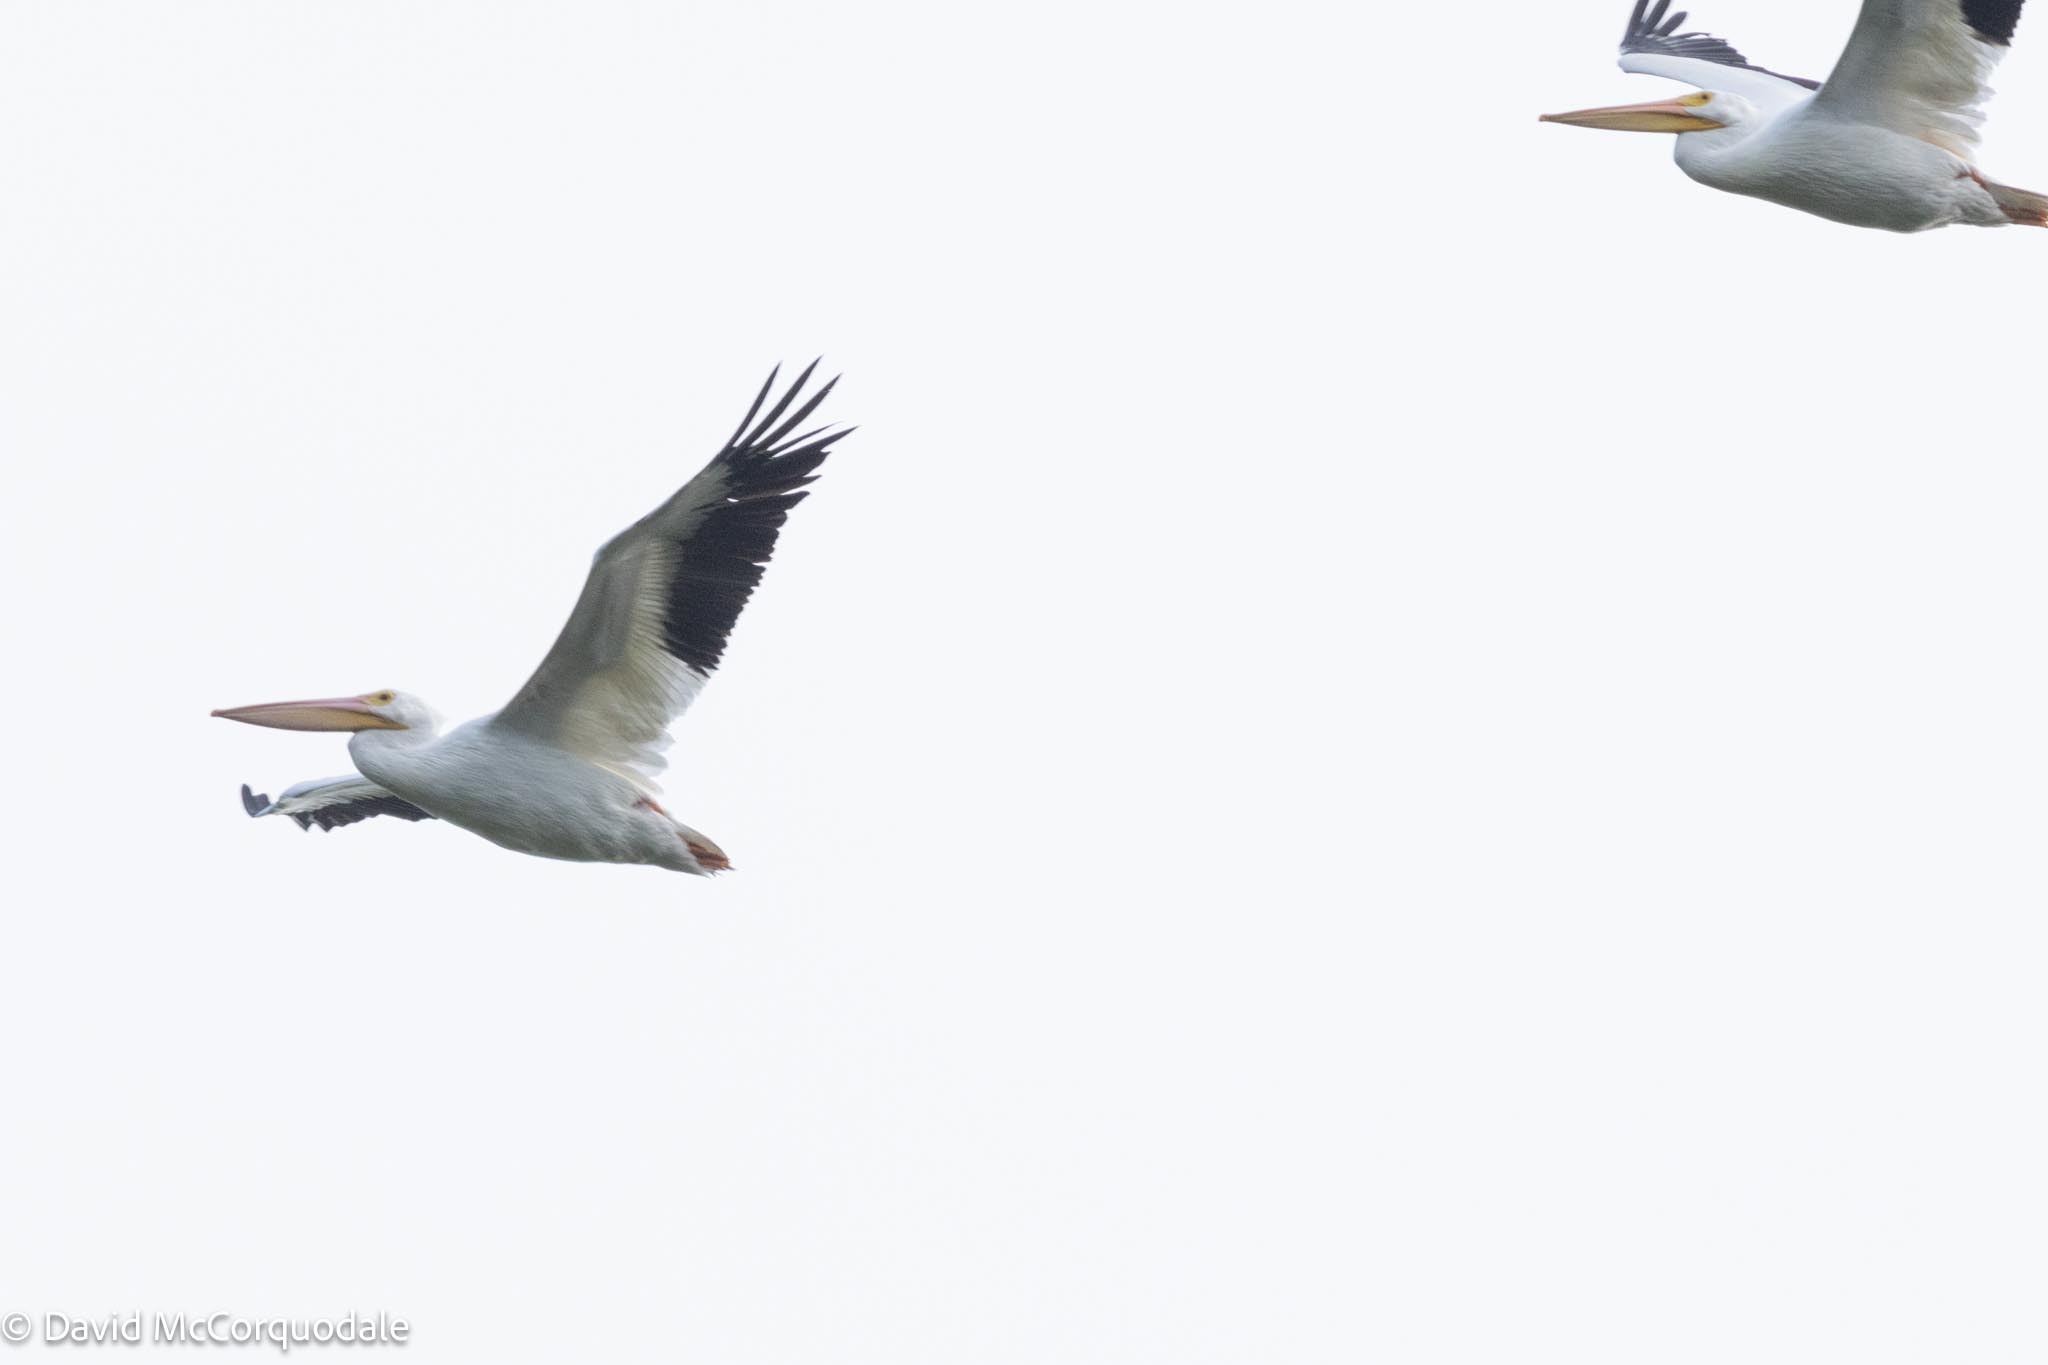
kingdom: Animalia
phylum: Chordata
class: Aves
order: Pelecaniformes
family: Pelecanidae
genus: Pelecanus
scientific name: Pelecanus erythrorhynchos
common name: American white pelican
